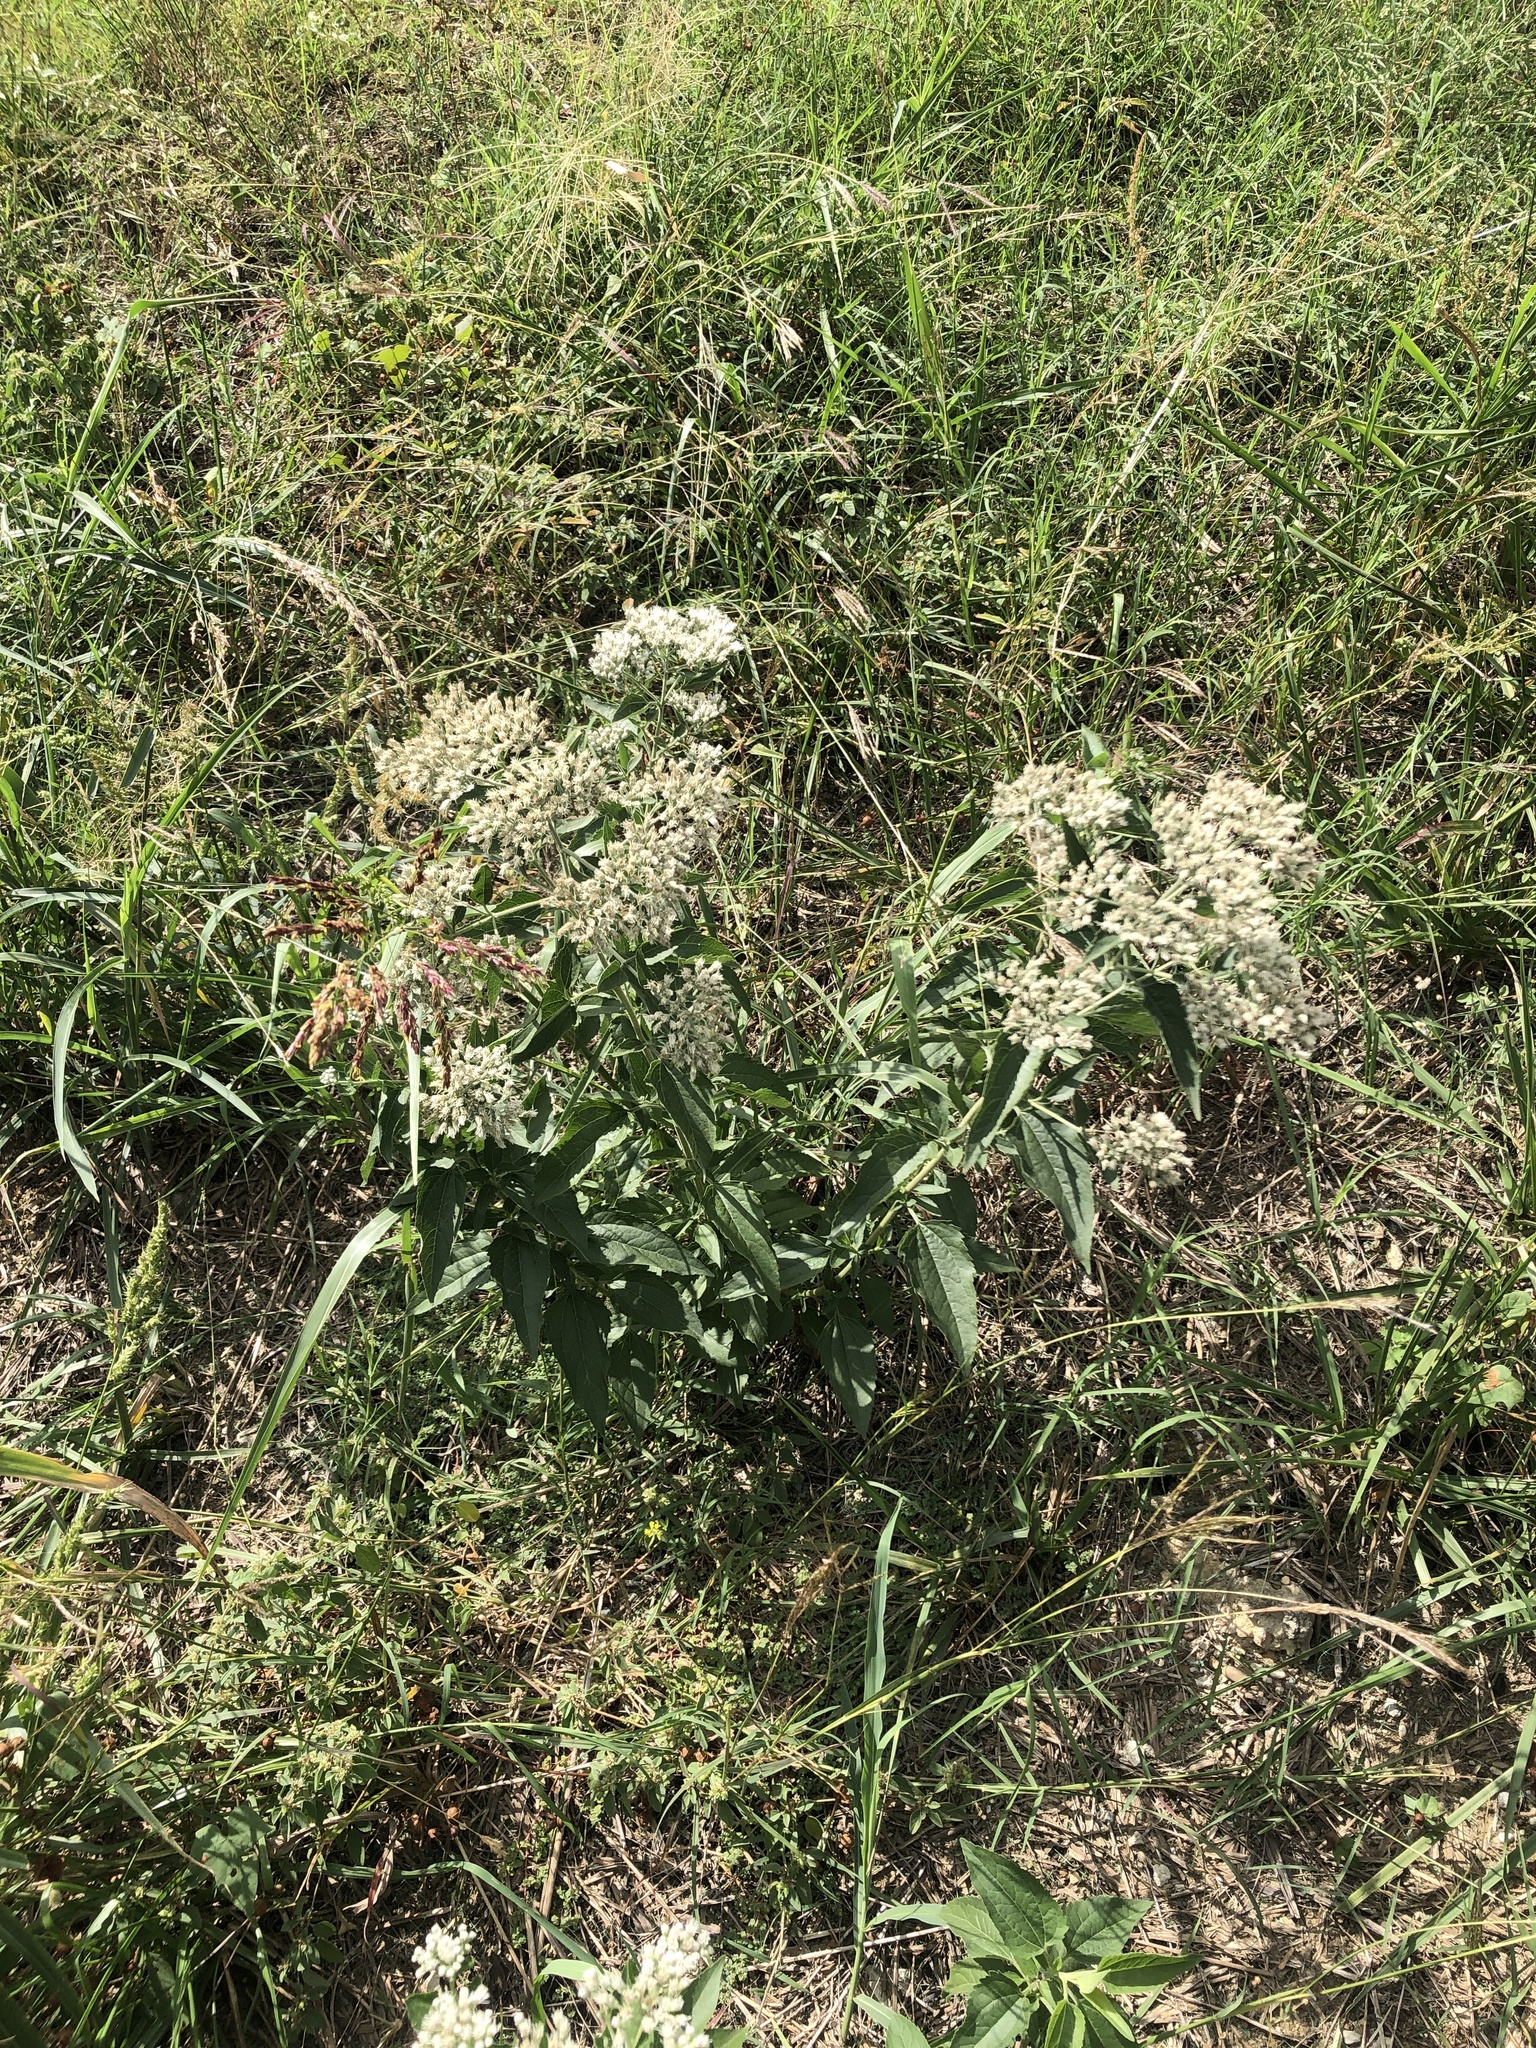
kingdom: Plantae
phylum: Tracheophyta
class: Magnoliopsida
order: Asterales
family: Asteraceae
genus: Eupatorium
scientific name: Eupatorium serotinum
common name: Late boneset
